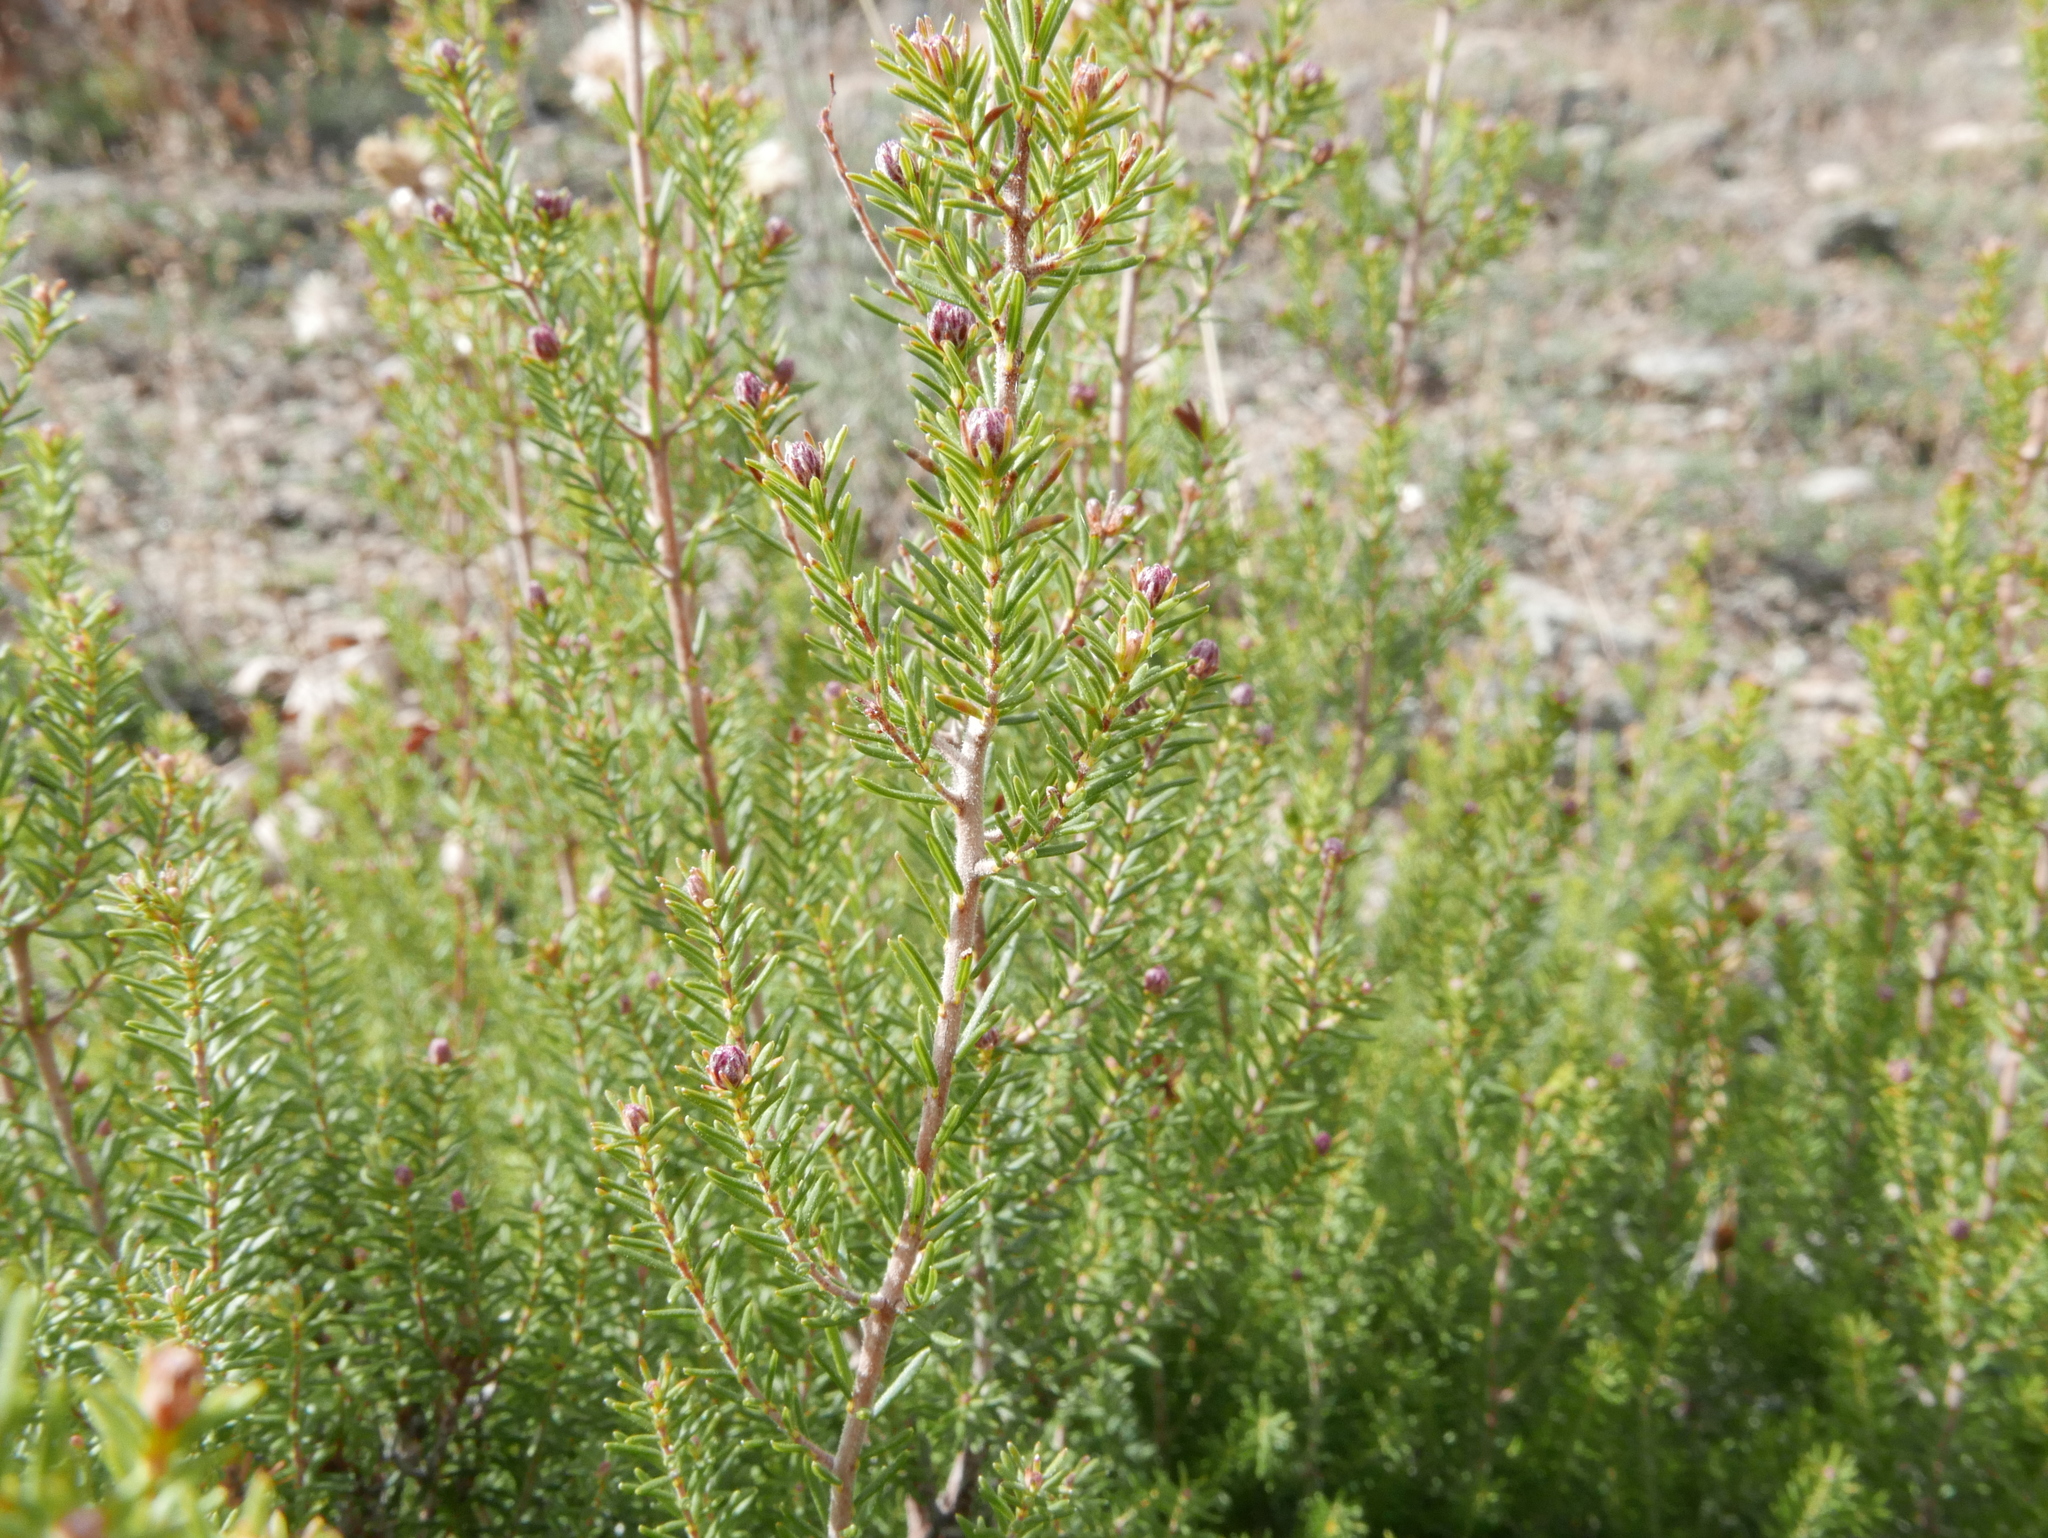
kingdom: Plantae
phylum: Tracheophyta
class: Magnoliopsida
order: Ericales
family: Ericaceae
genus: Erica
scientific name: Erica australis
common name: Spanish heath
